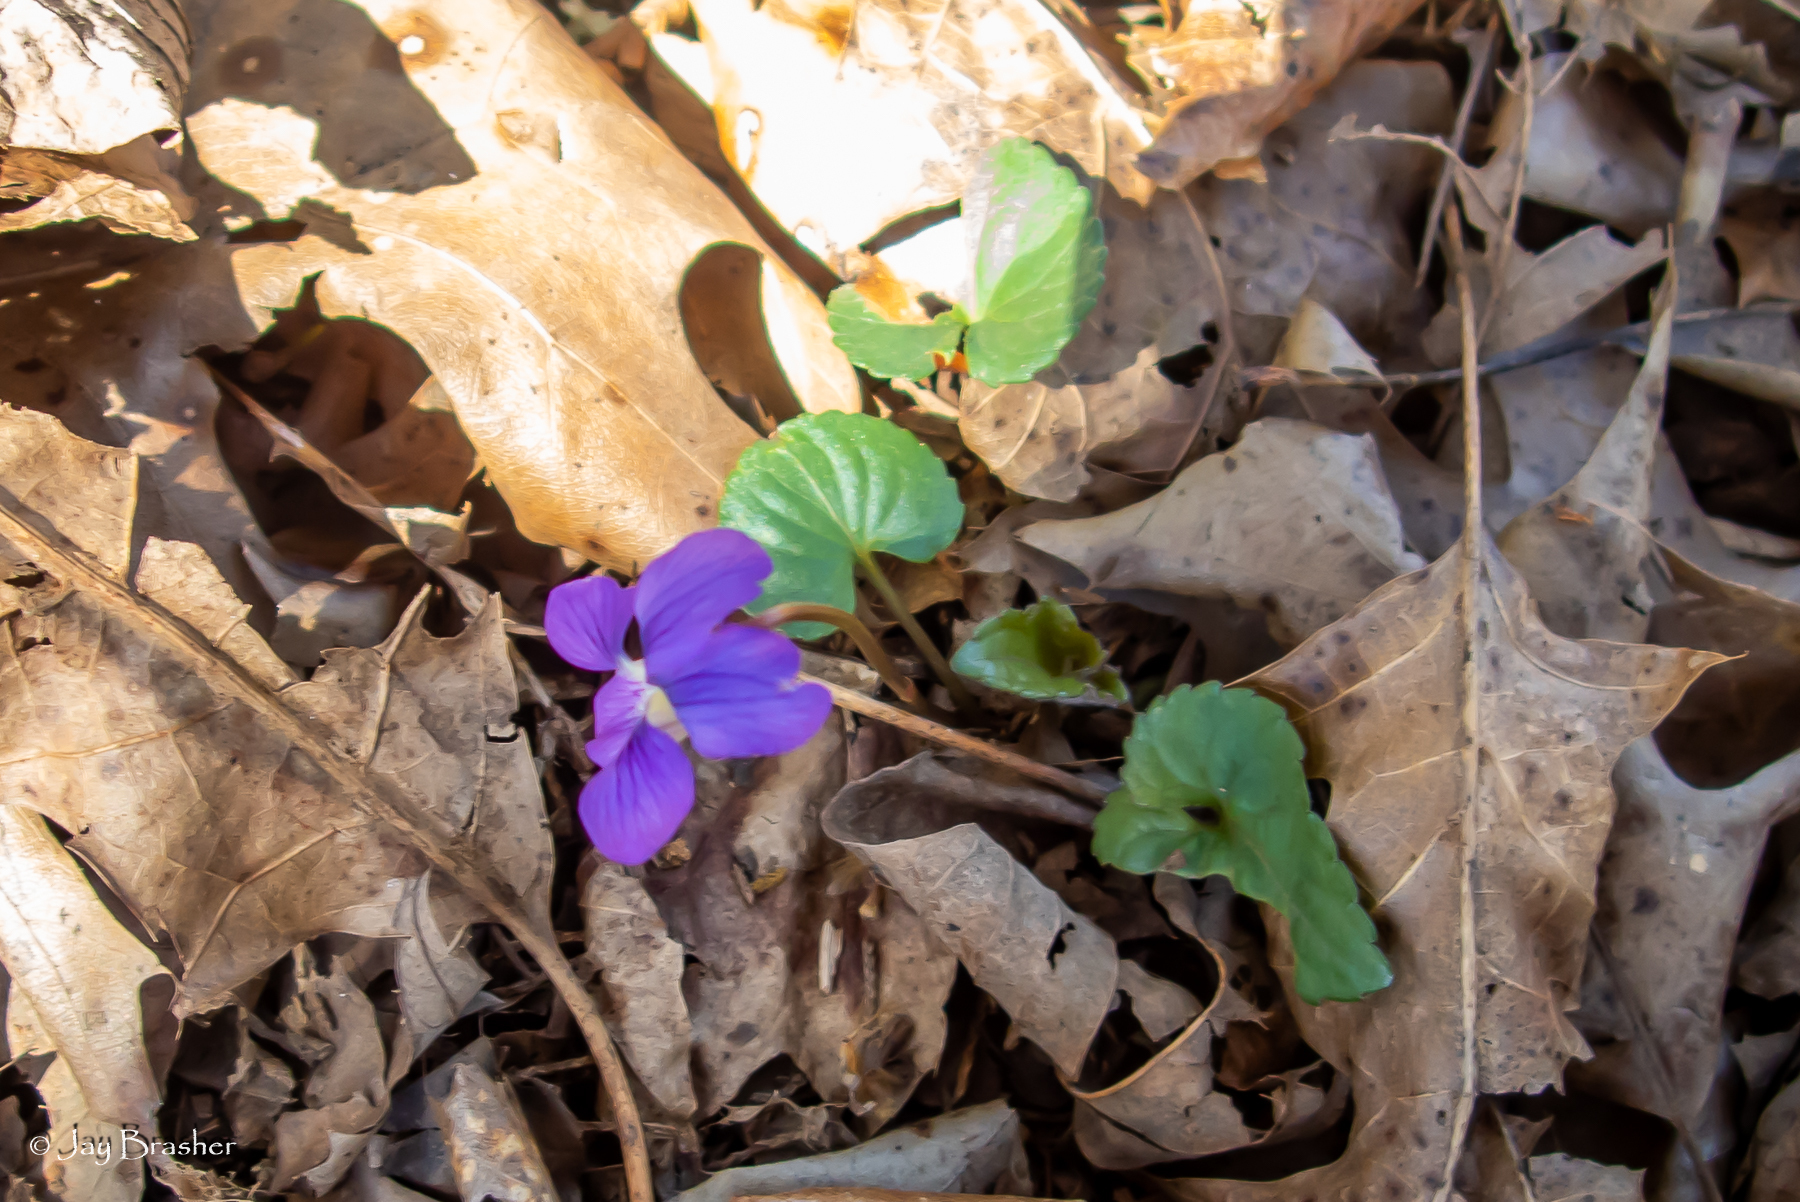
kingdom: Plantae
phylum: Tracheophyta
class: Magnoliopsida
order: Malpighiales
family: Violaceae
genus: Viola
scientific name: Viola sororia
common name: Dooryard violet
